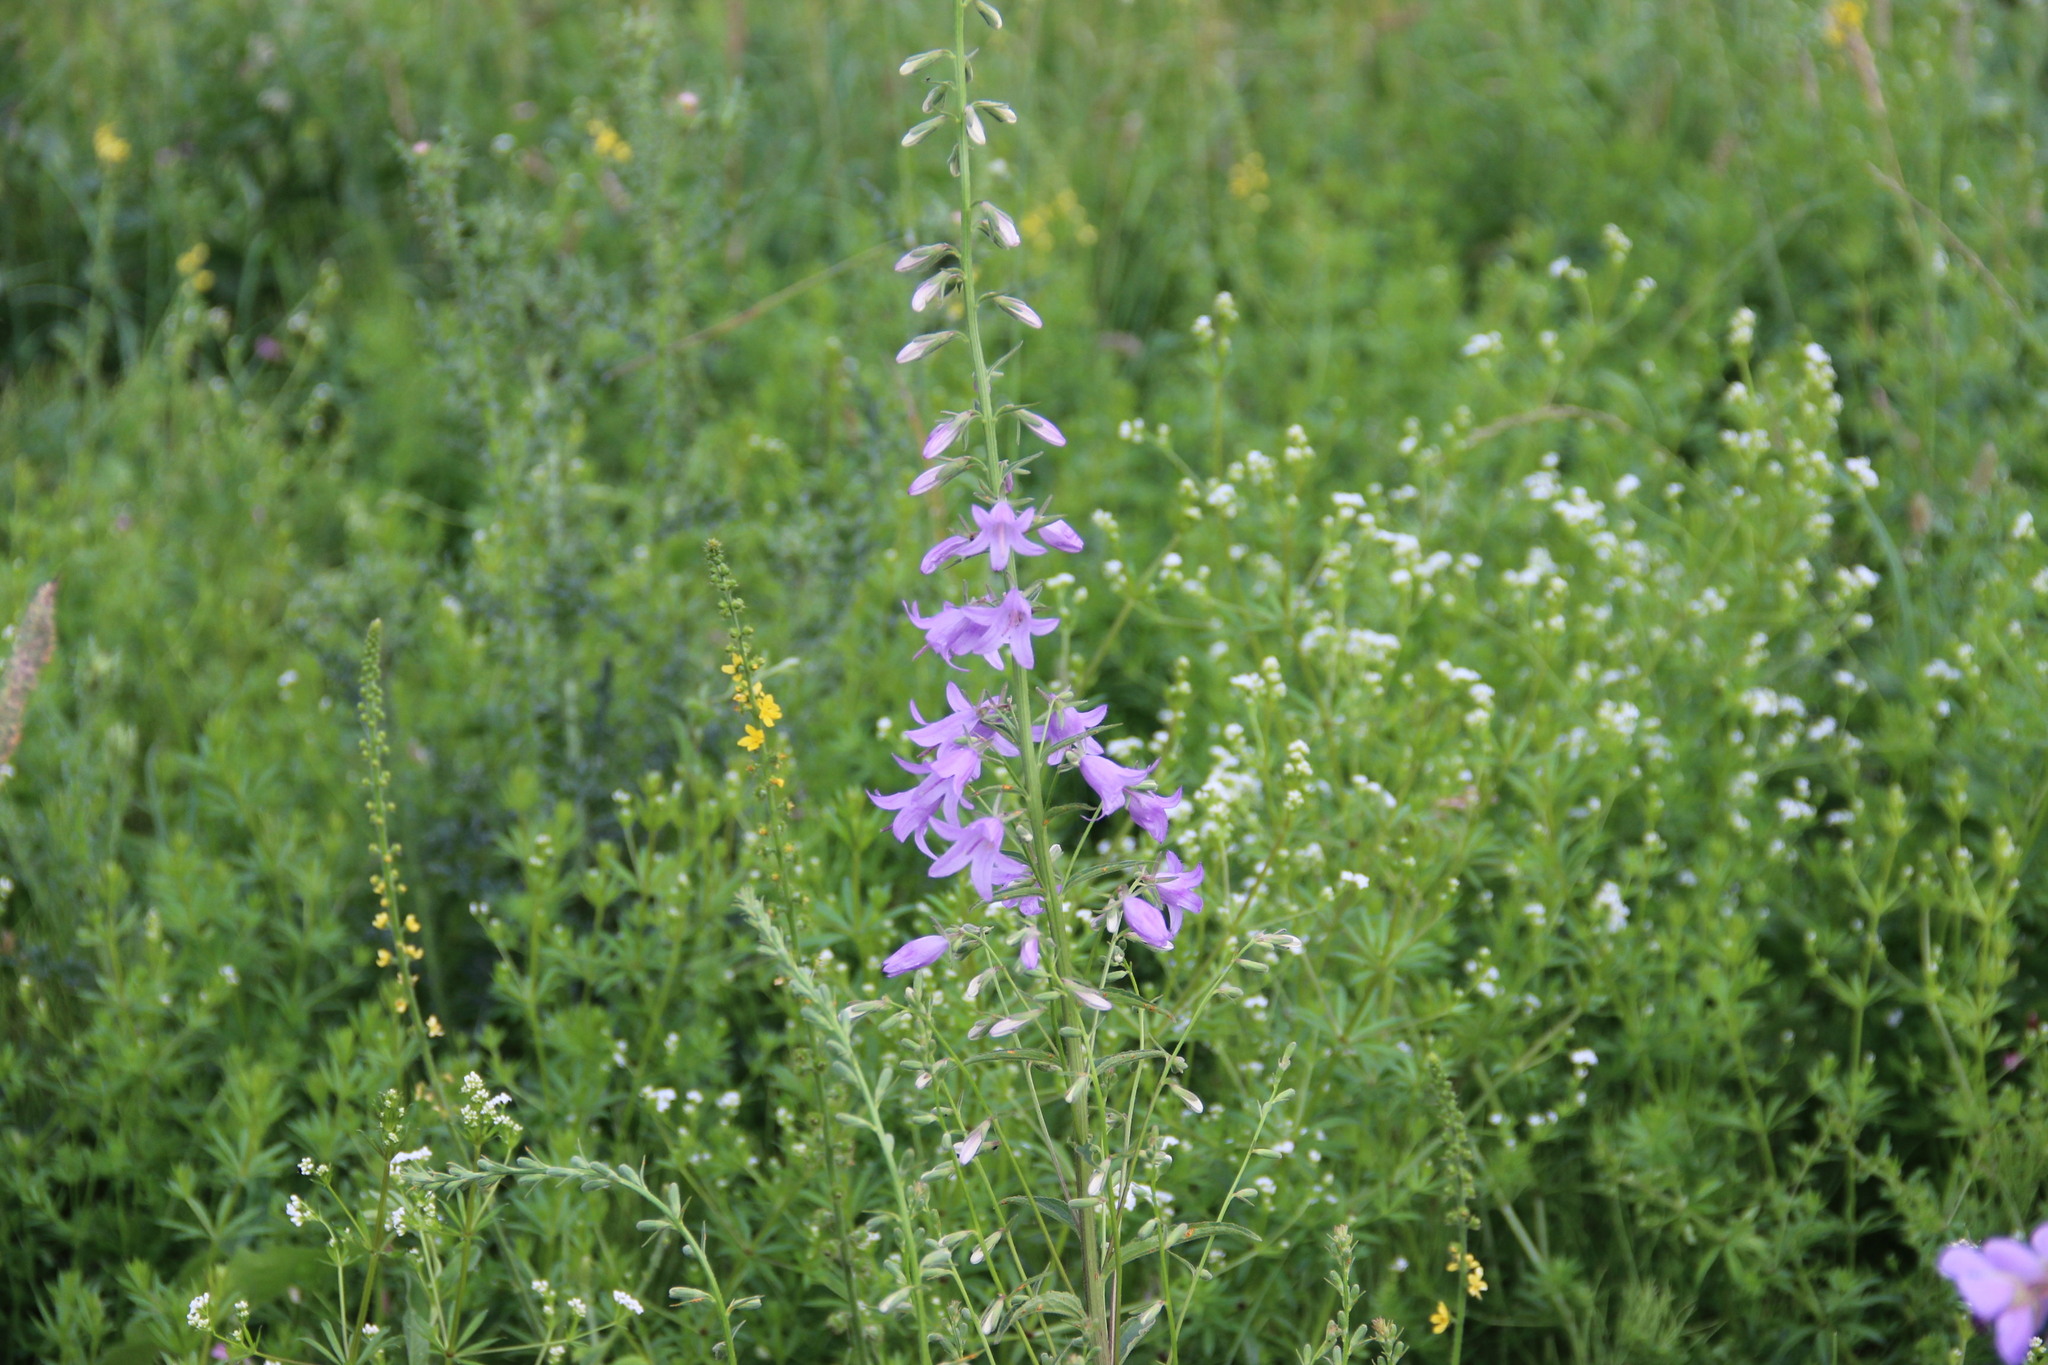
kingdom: Plantae
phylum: Tracheophyta
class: Magnoliopsida
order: Asterales
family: Campanulaceae
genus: Campanula
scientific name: Campanula rapunculoides
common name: Creeping bellflower
